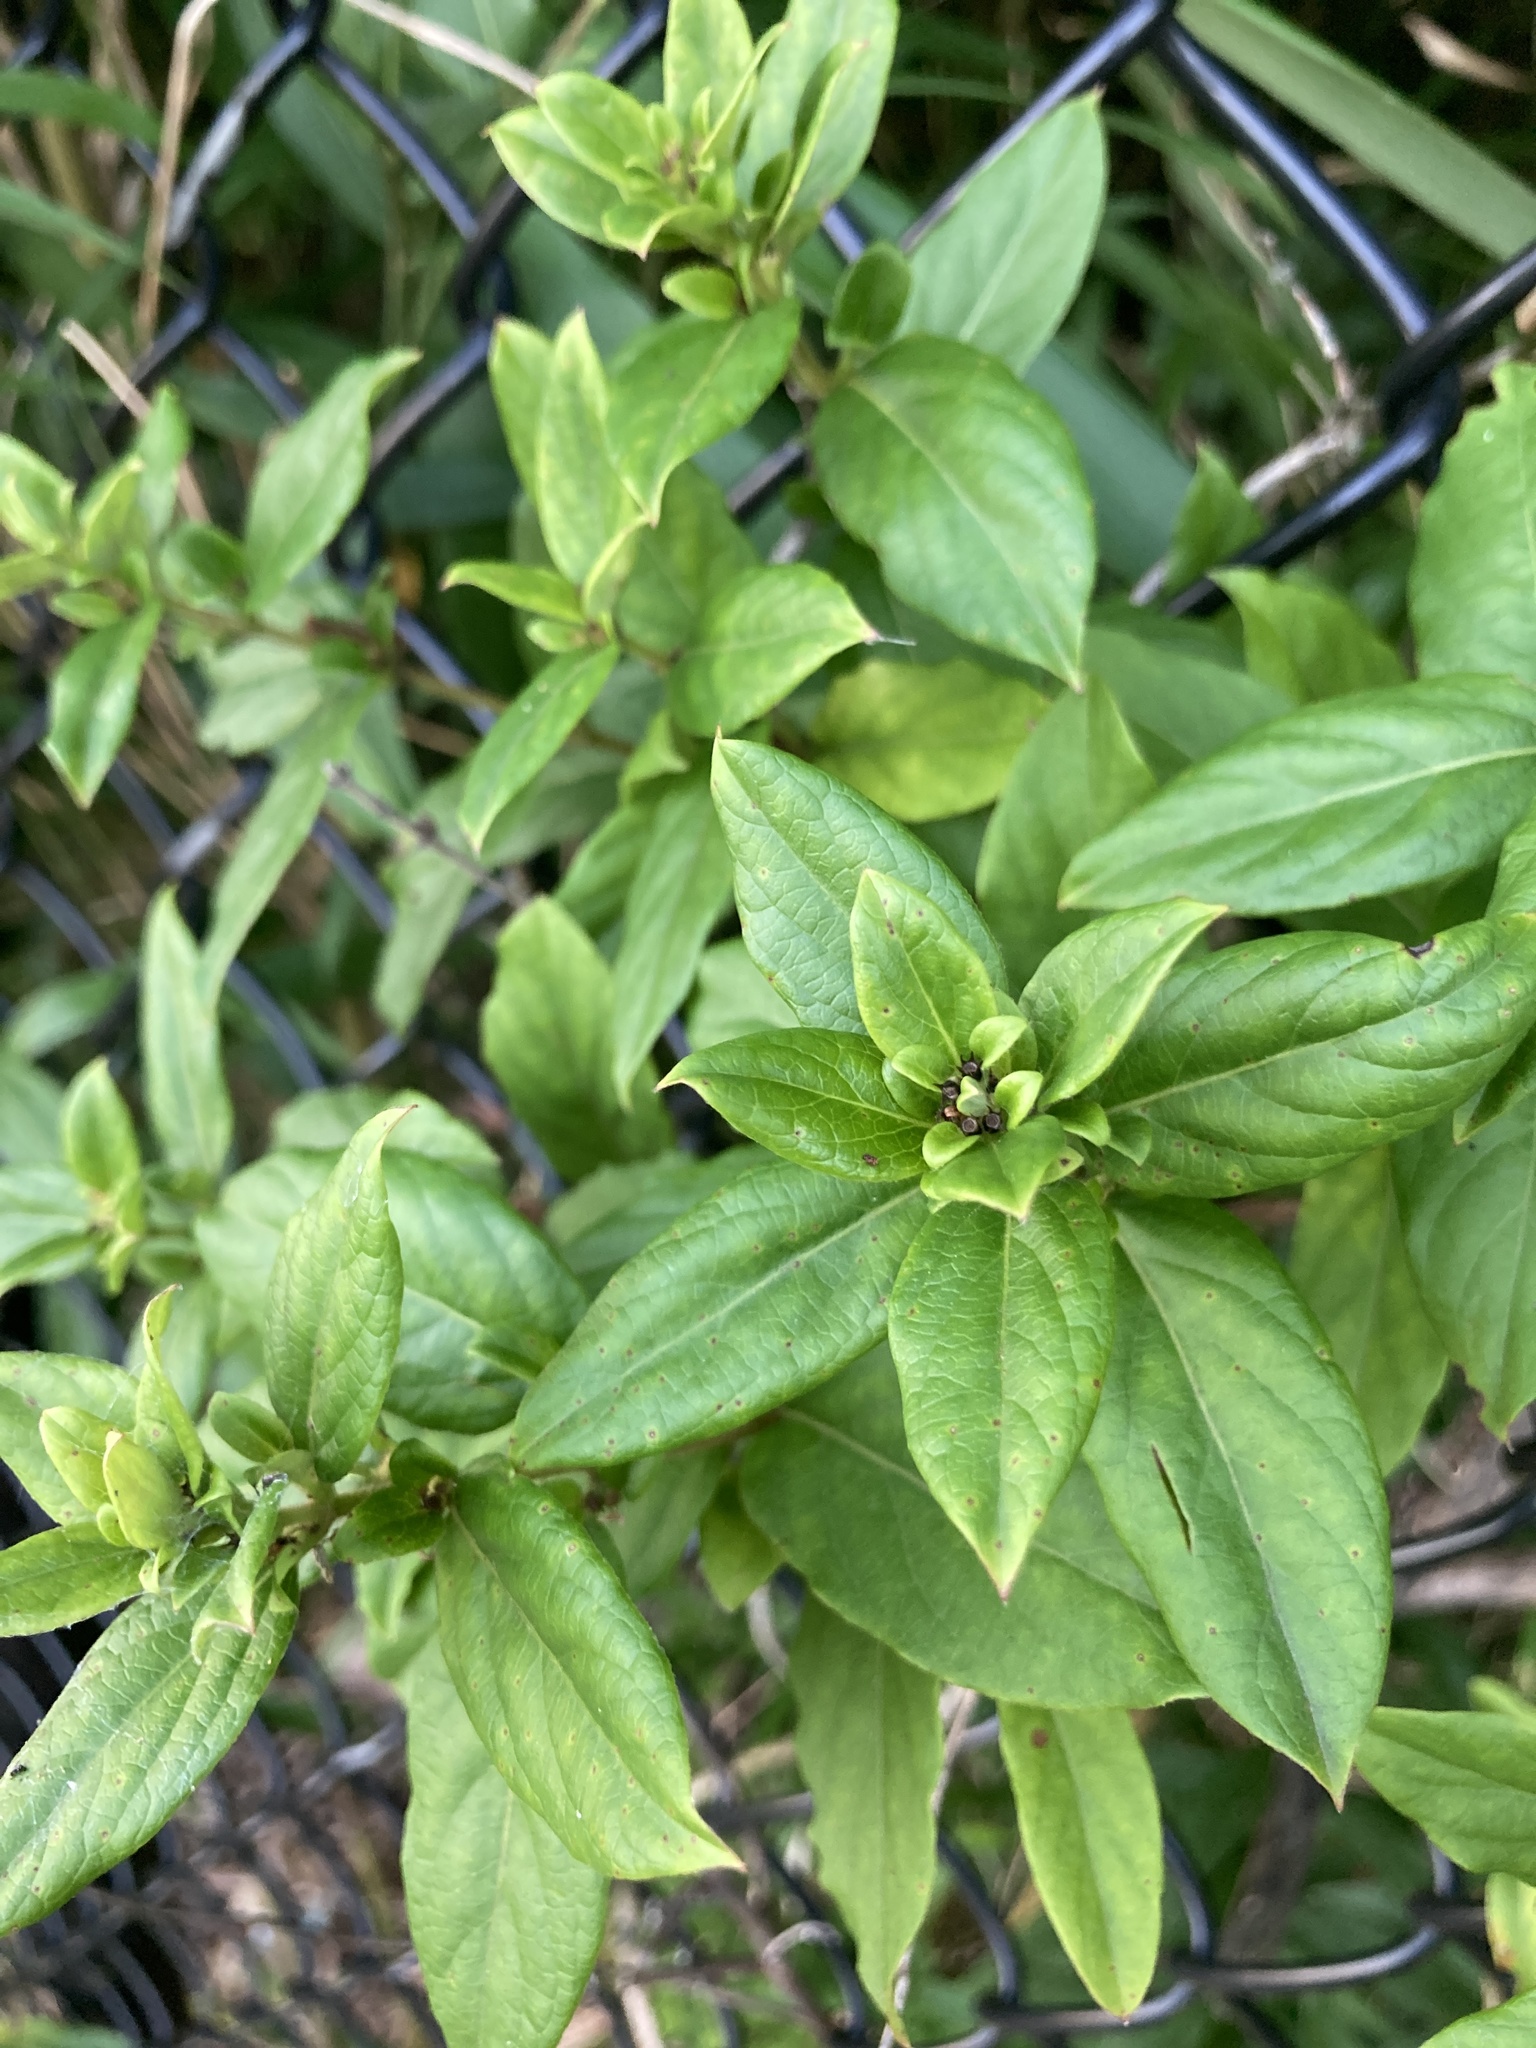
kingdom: Plantae
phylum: Tracheophyta
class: Magnoliopsida
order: Dipsacales
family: Caprifoliaceae
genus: Lonicera
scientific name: Lonicera japonica
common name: Japanese honeysuckle
